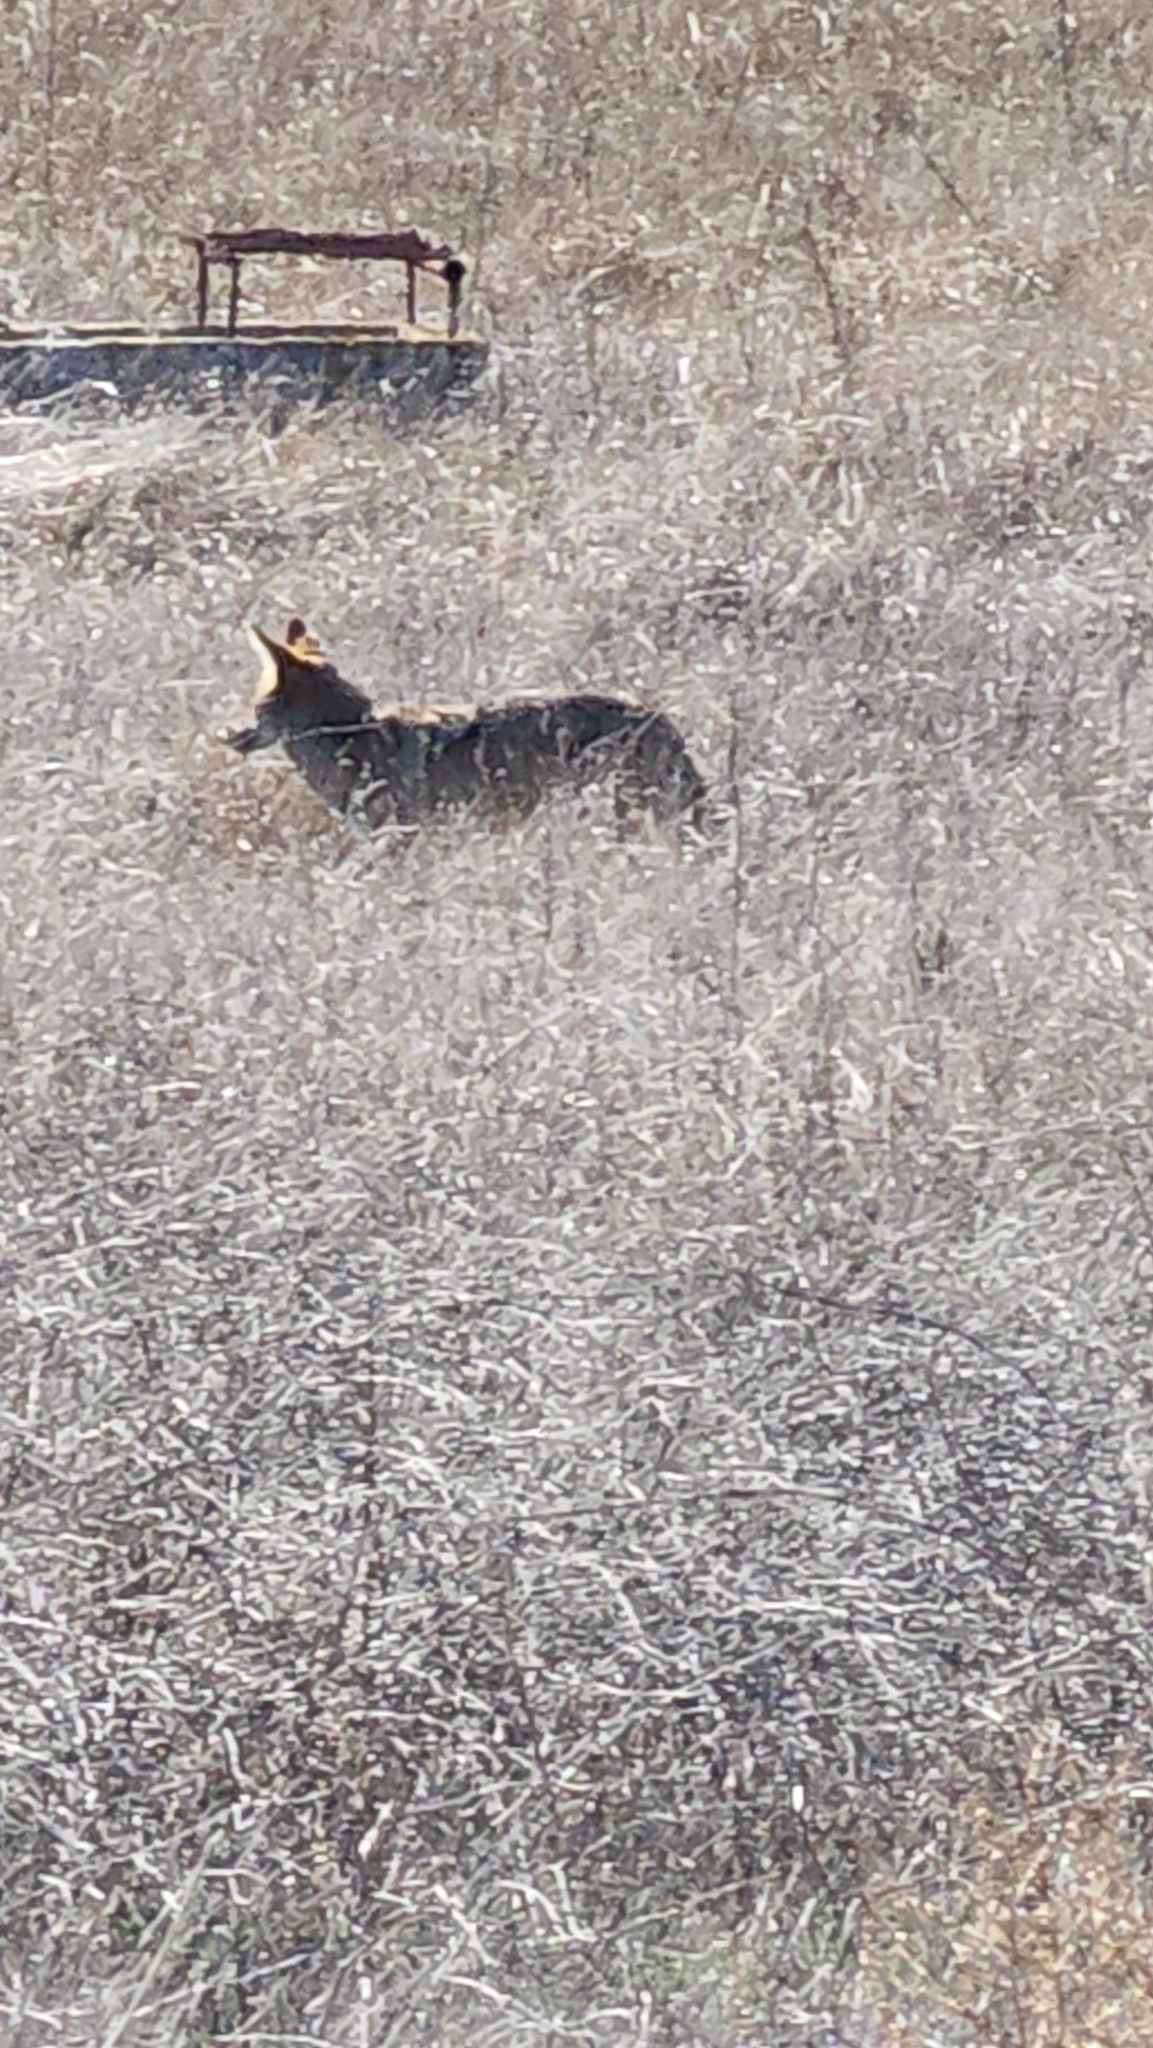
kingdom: Animalia
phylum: Chordata
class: Mammalia
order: Carnivora
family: Canidae
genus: Canis
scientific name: Canis latrans
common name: Coyote
